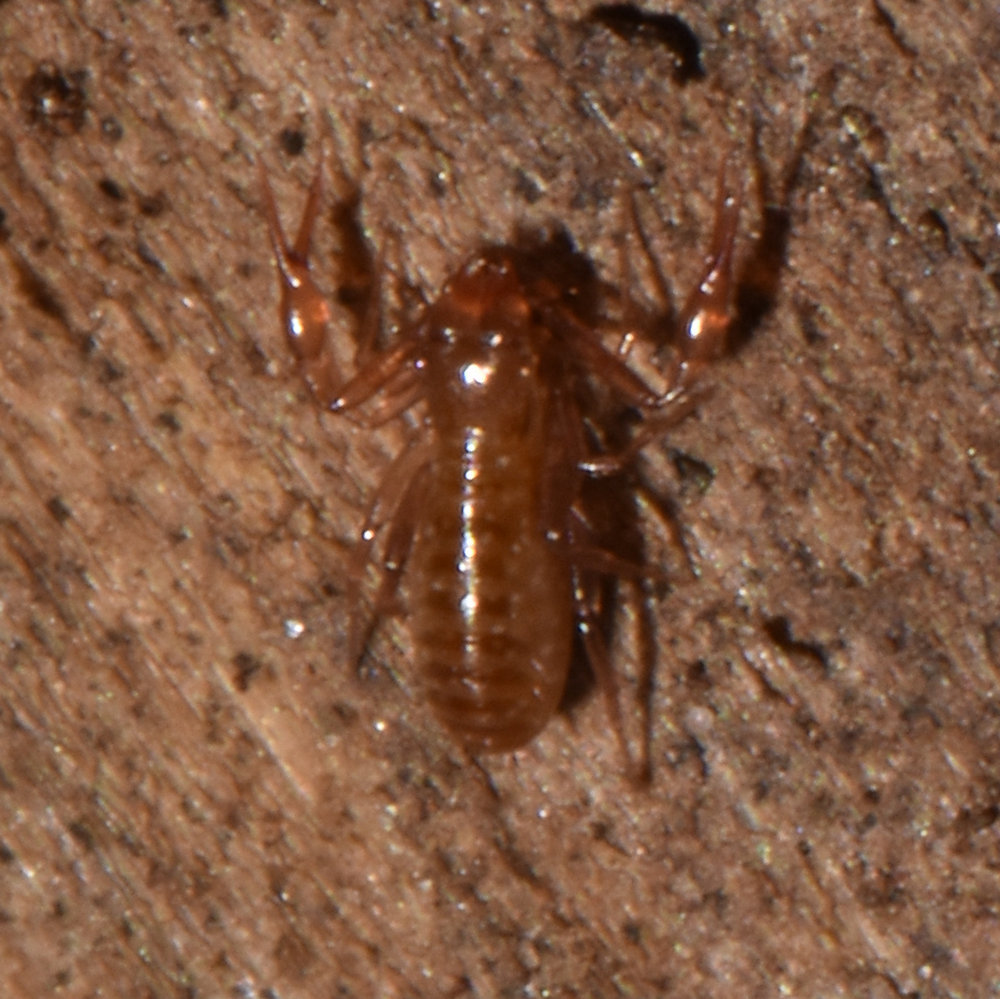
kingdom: Animalia
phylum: Arthropoda
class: Arachnida
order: Pseudoscorpiones
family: Cheliferidae
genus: Chelifer
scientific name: Chelifer cancroides
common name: House false-scorpion
